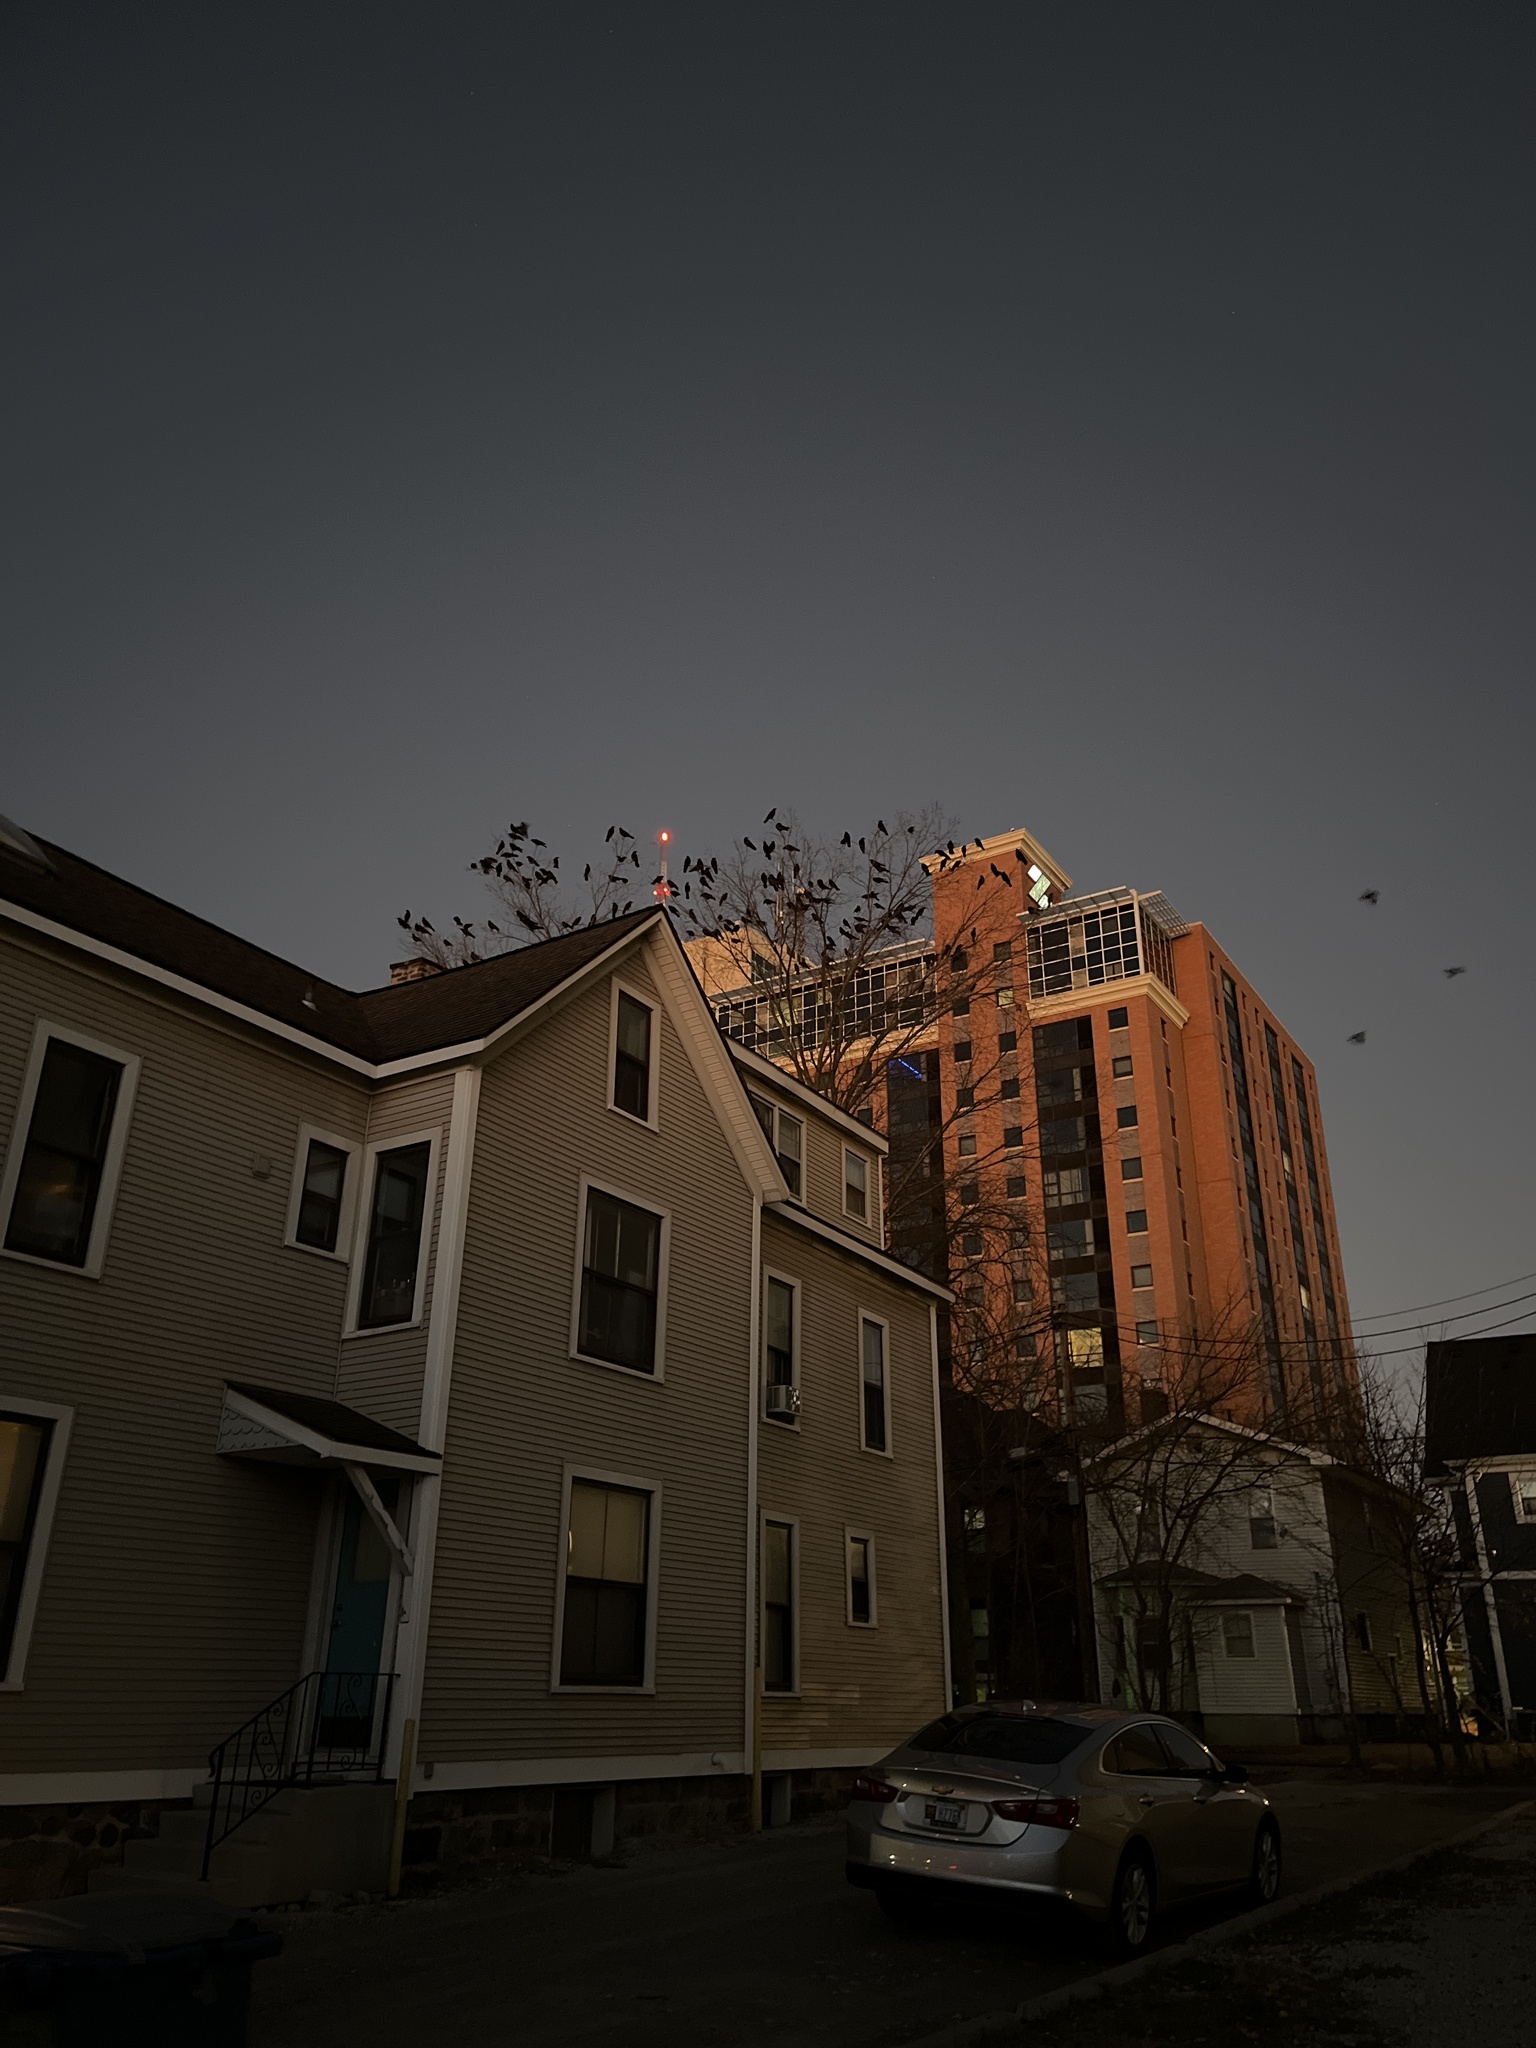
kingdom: Animalia
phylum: Chordata
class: Aves
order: Passeriformes
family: Corvidae
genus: Corvus
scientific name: Corvus brachyrhynchos
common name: American crow
